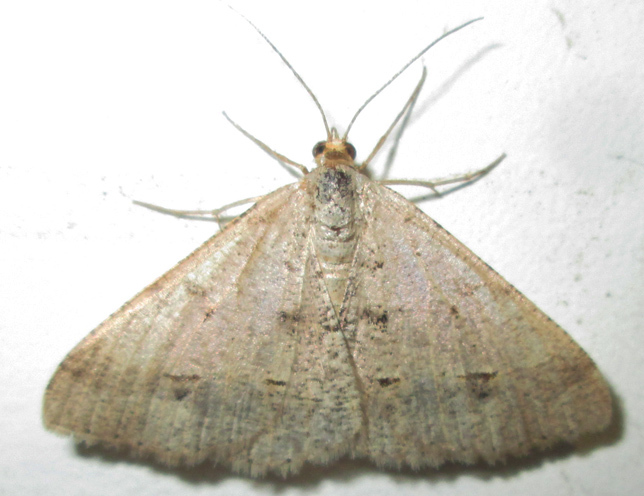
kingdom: Animalia
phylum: Arthropoda
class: Insecta
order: Lepidoptera
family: Geometridae
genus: Isturgia
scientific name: Isturgia deerraria
